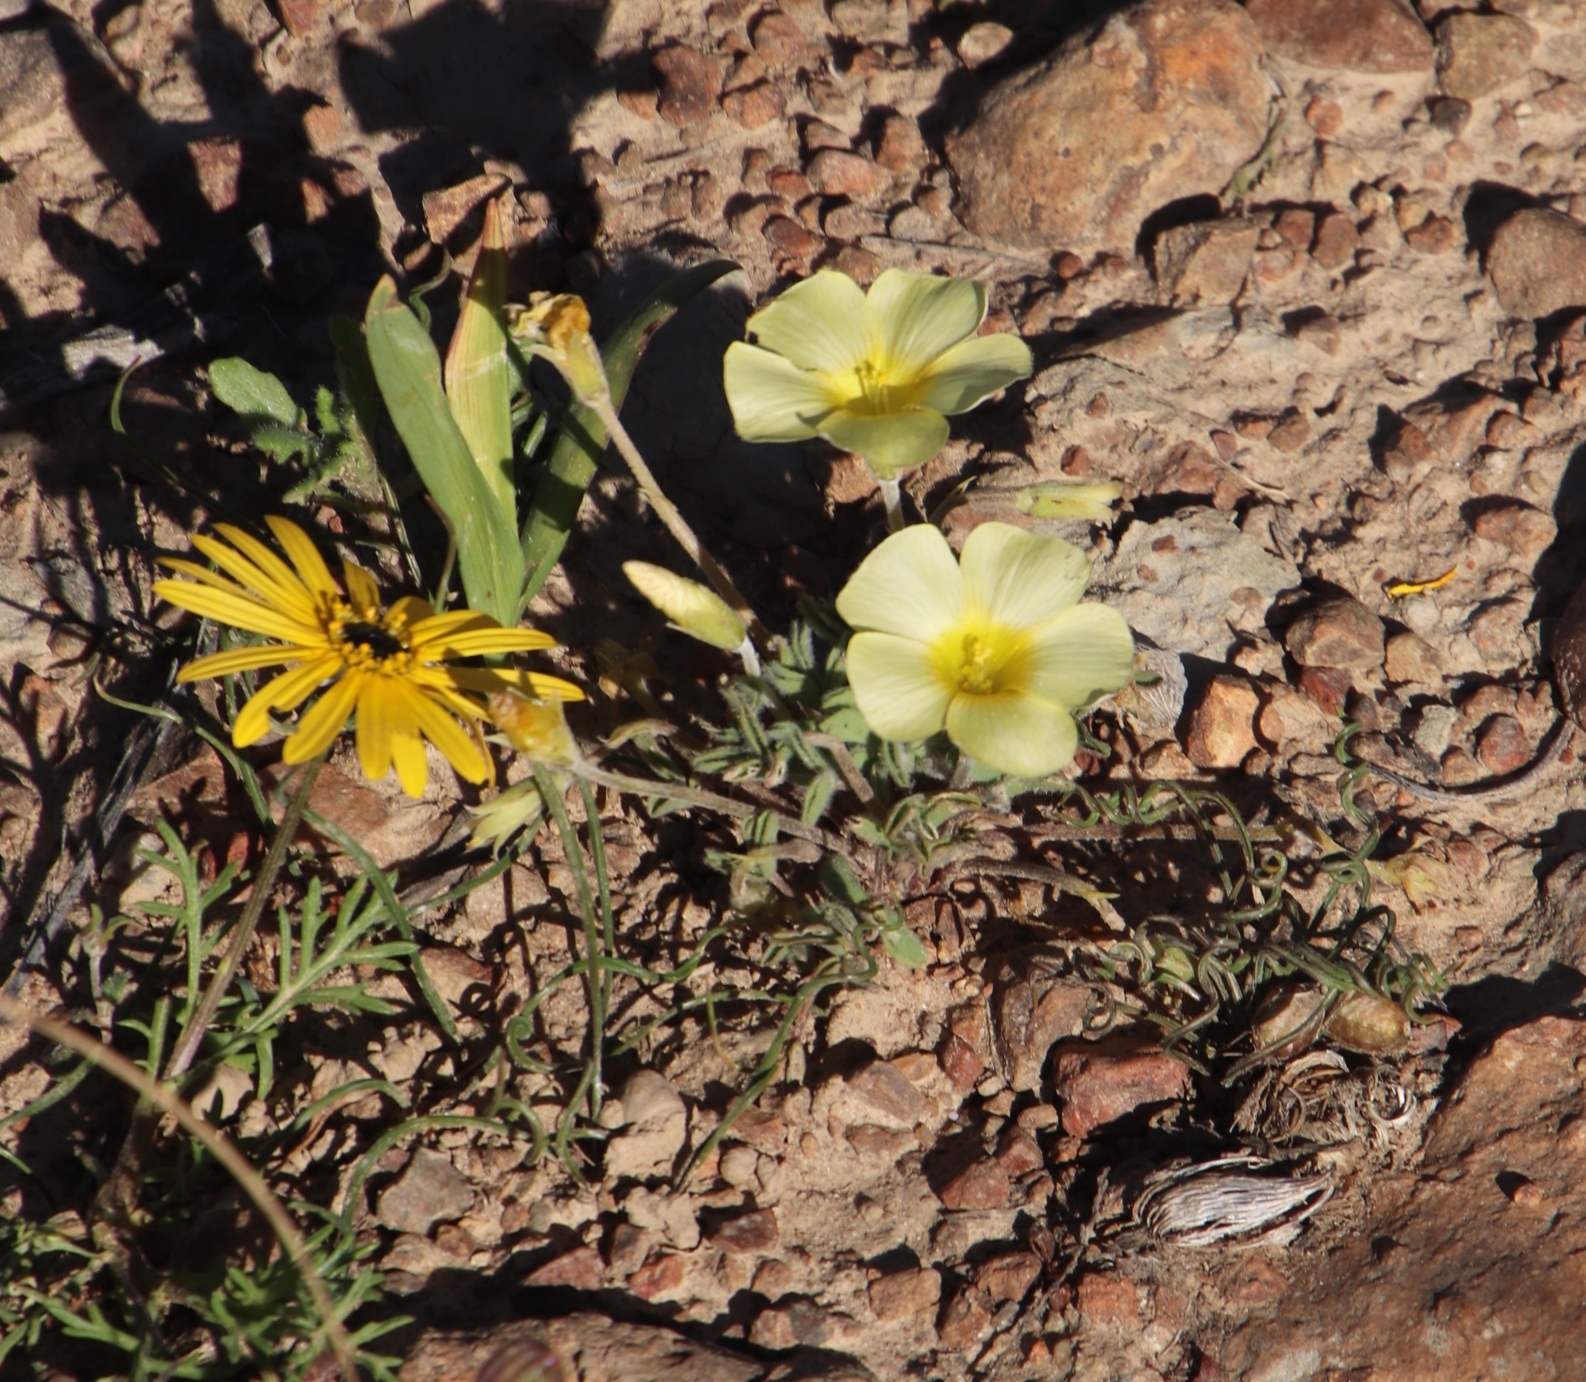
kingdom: Plantae
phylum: Tracheophyta
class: Magnoliopsida
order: Oxalidales
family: Oxalidaceae
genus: Oxalis
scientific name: Oxalis obtusa
